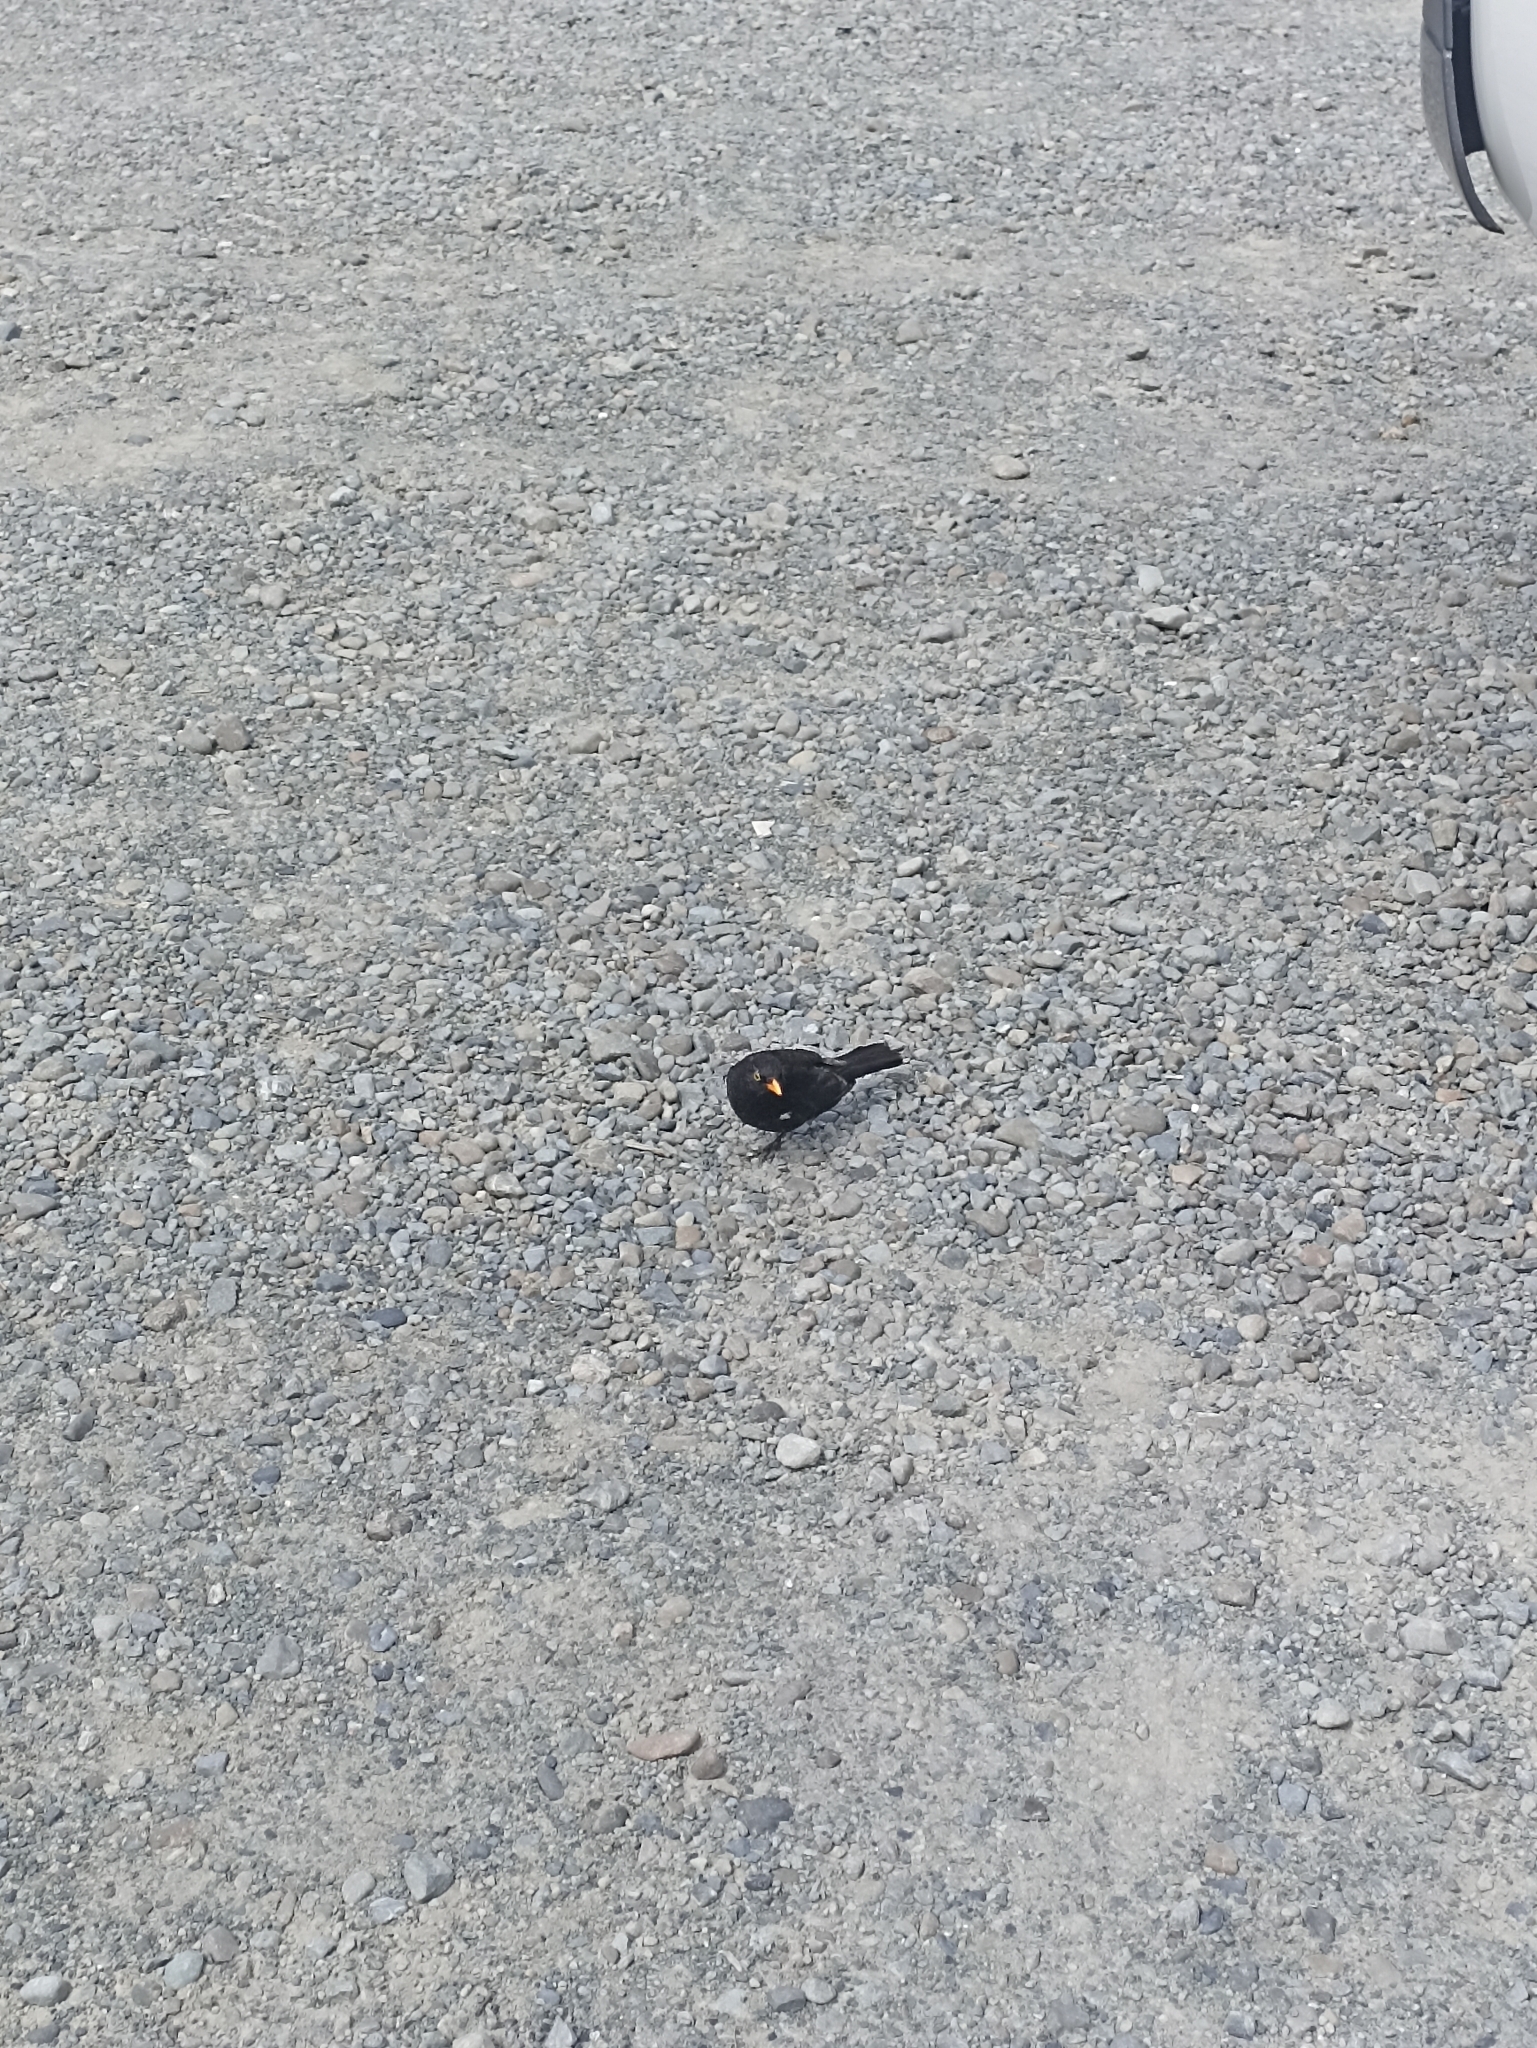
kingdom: Animalia
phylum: Chordata
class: Aves
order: Passeriformes
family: Turdidae
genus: Turdus
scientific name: Turdus merula
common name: Common blackbird
